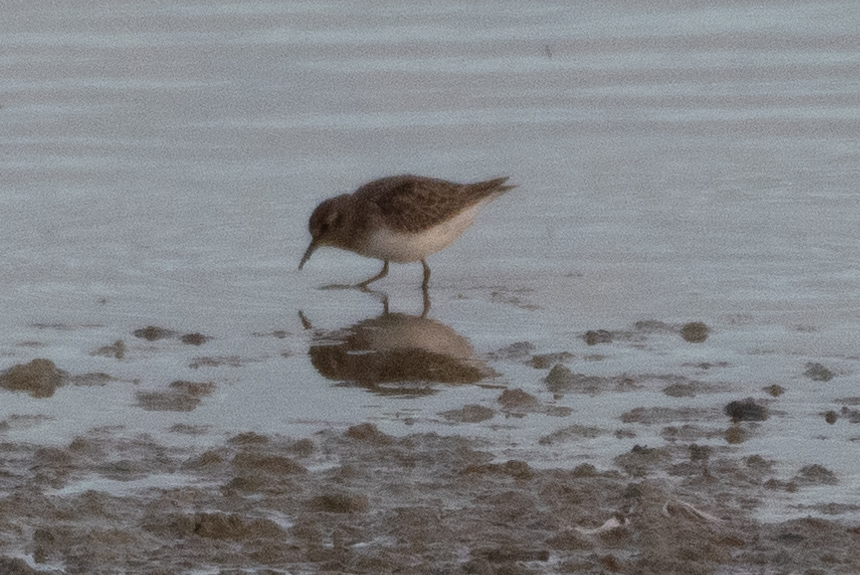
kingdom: Animalia
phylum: Chordata
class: Aves
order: Charadriiformes
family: Scolopacidae
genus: Calidris
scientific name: Calidris minutilla
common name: Least sandpiper
